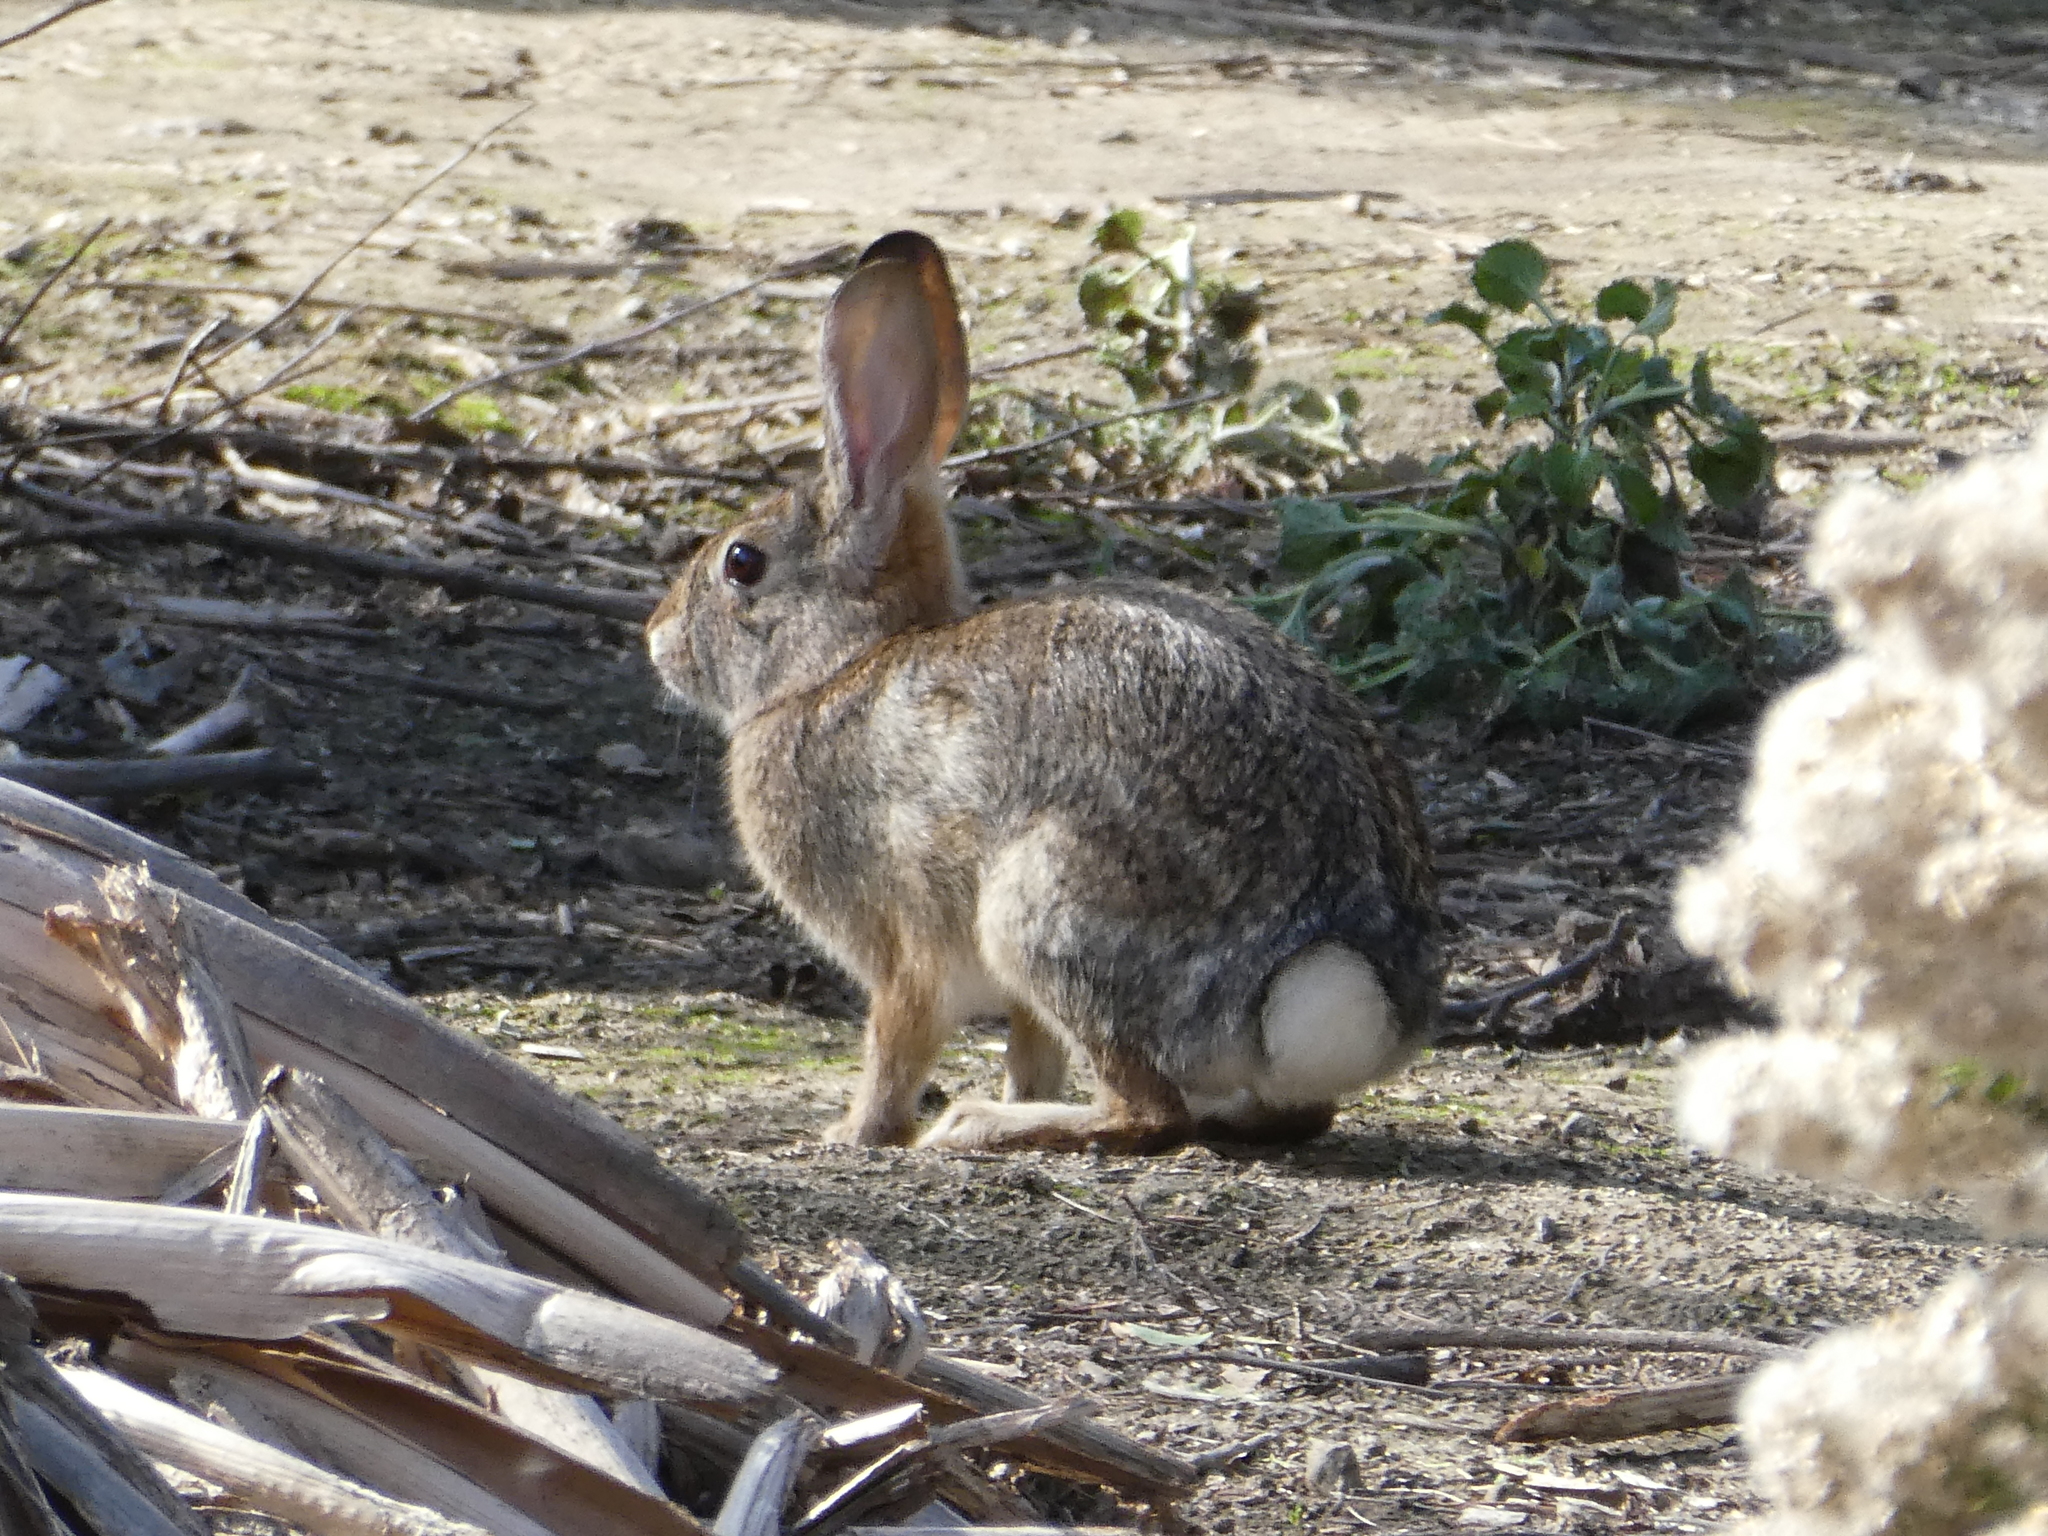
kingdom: Animalia
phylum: Chordata
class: Mammalia
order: Lagomorpha
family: Leporidae
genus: Sylvilagus
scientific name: Sylvilagus audubonii
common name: Desert cottontail
